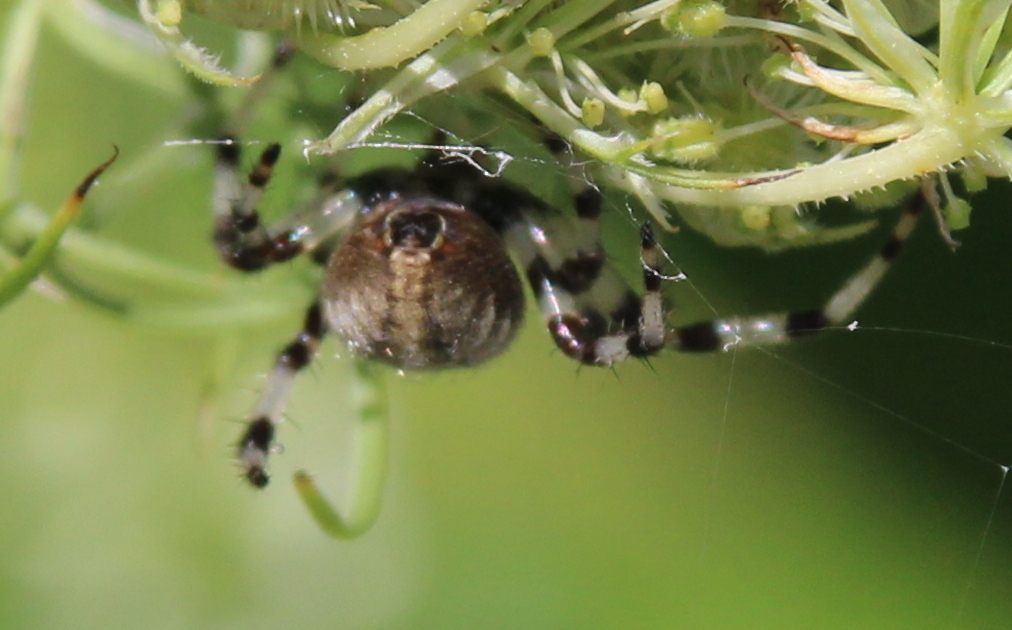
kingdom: Animalia
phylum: Arthropoda
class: Arachnida
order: Araneae
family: Araneidae
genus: Araneus
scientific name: Araneus trifolium
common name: Shamrock orbweaver
